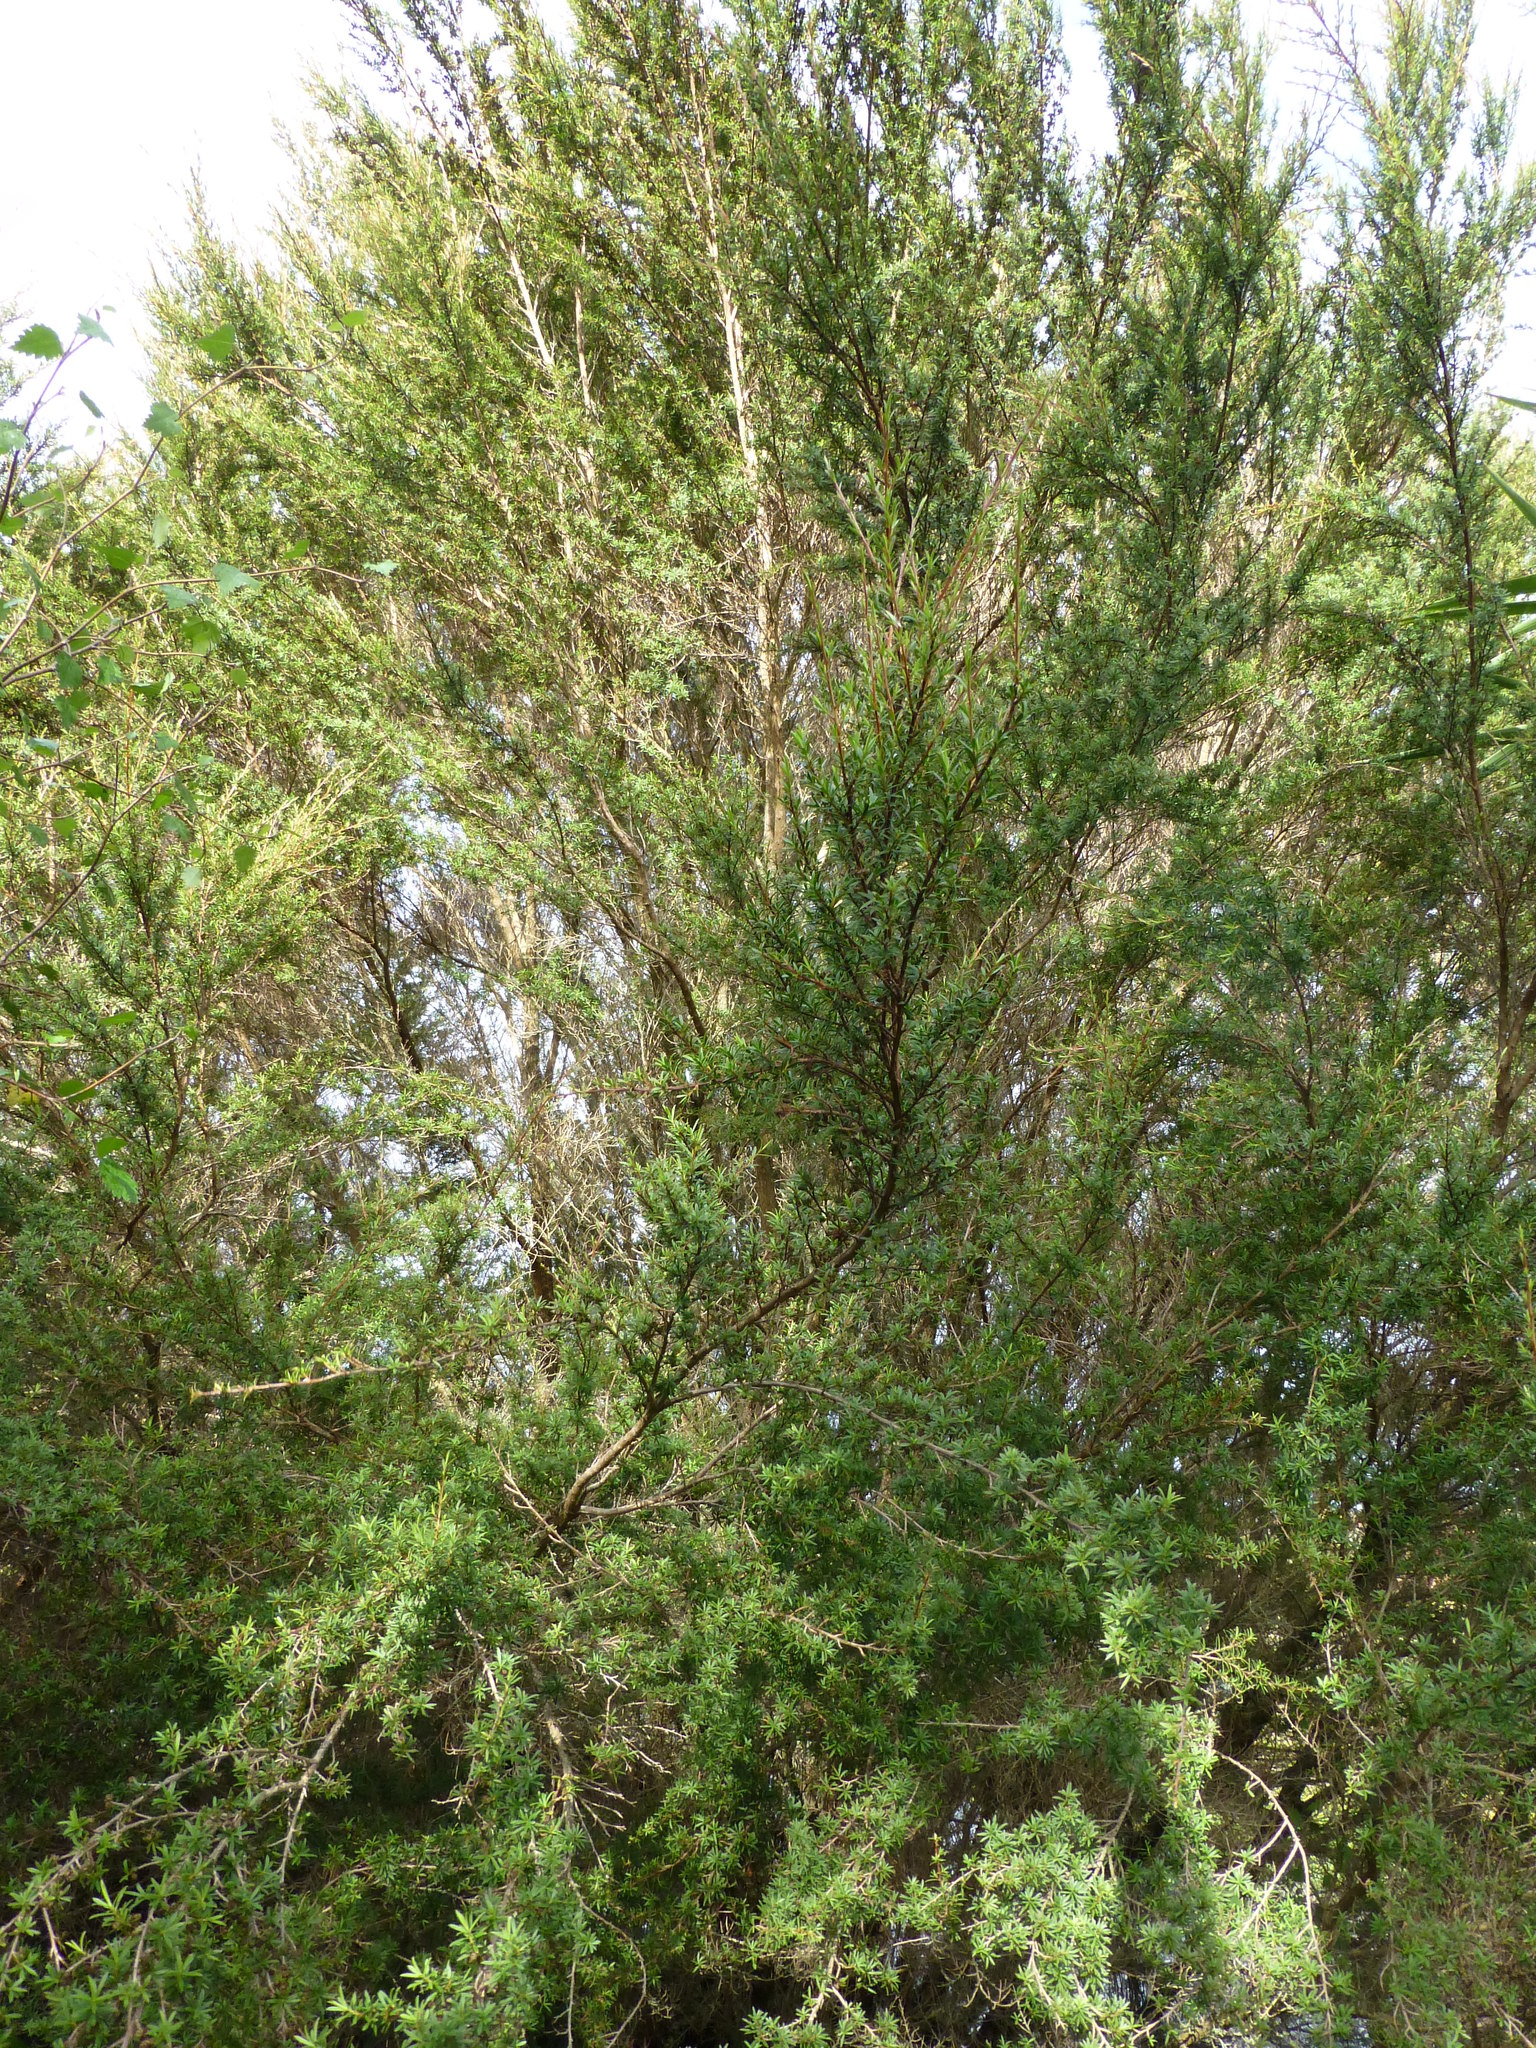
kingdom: Plantae
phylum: Tracheophyta
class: Magnoliopsida
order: Myrtales
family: Myrtaceae
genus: Kunzea
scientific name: Kunzea robusta
